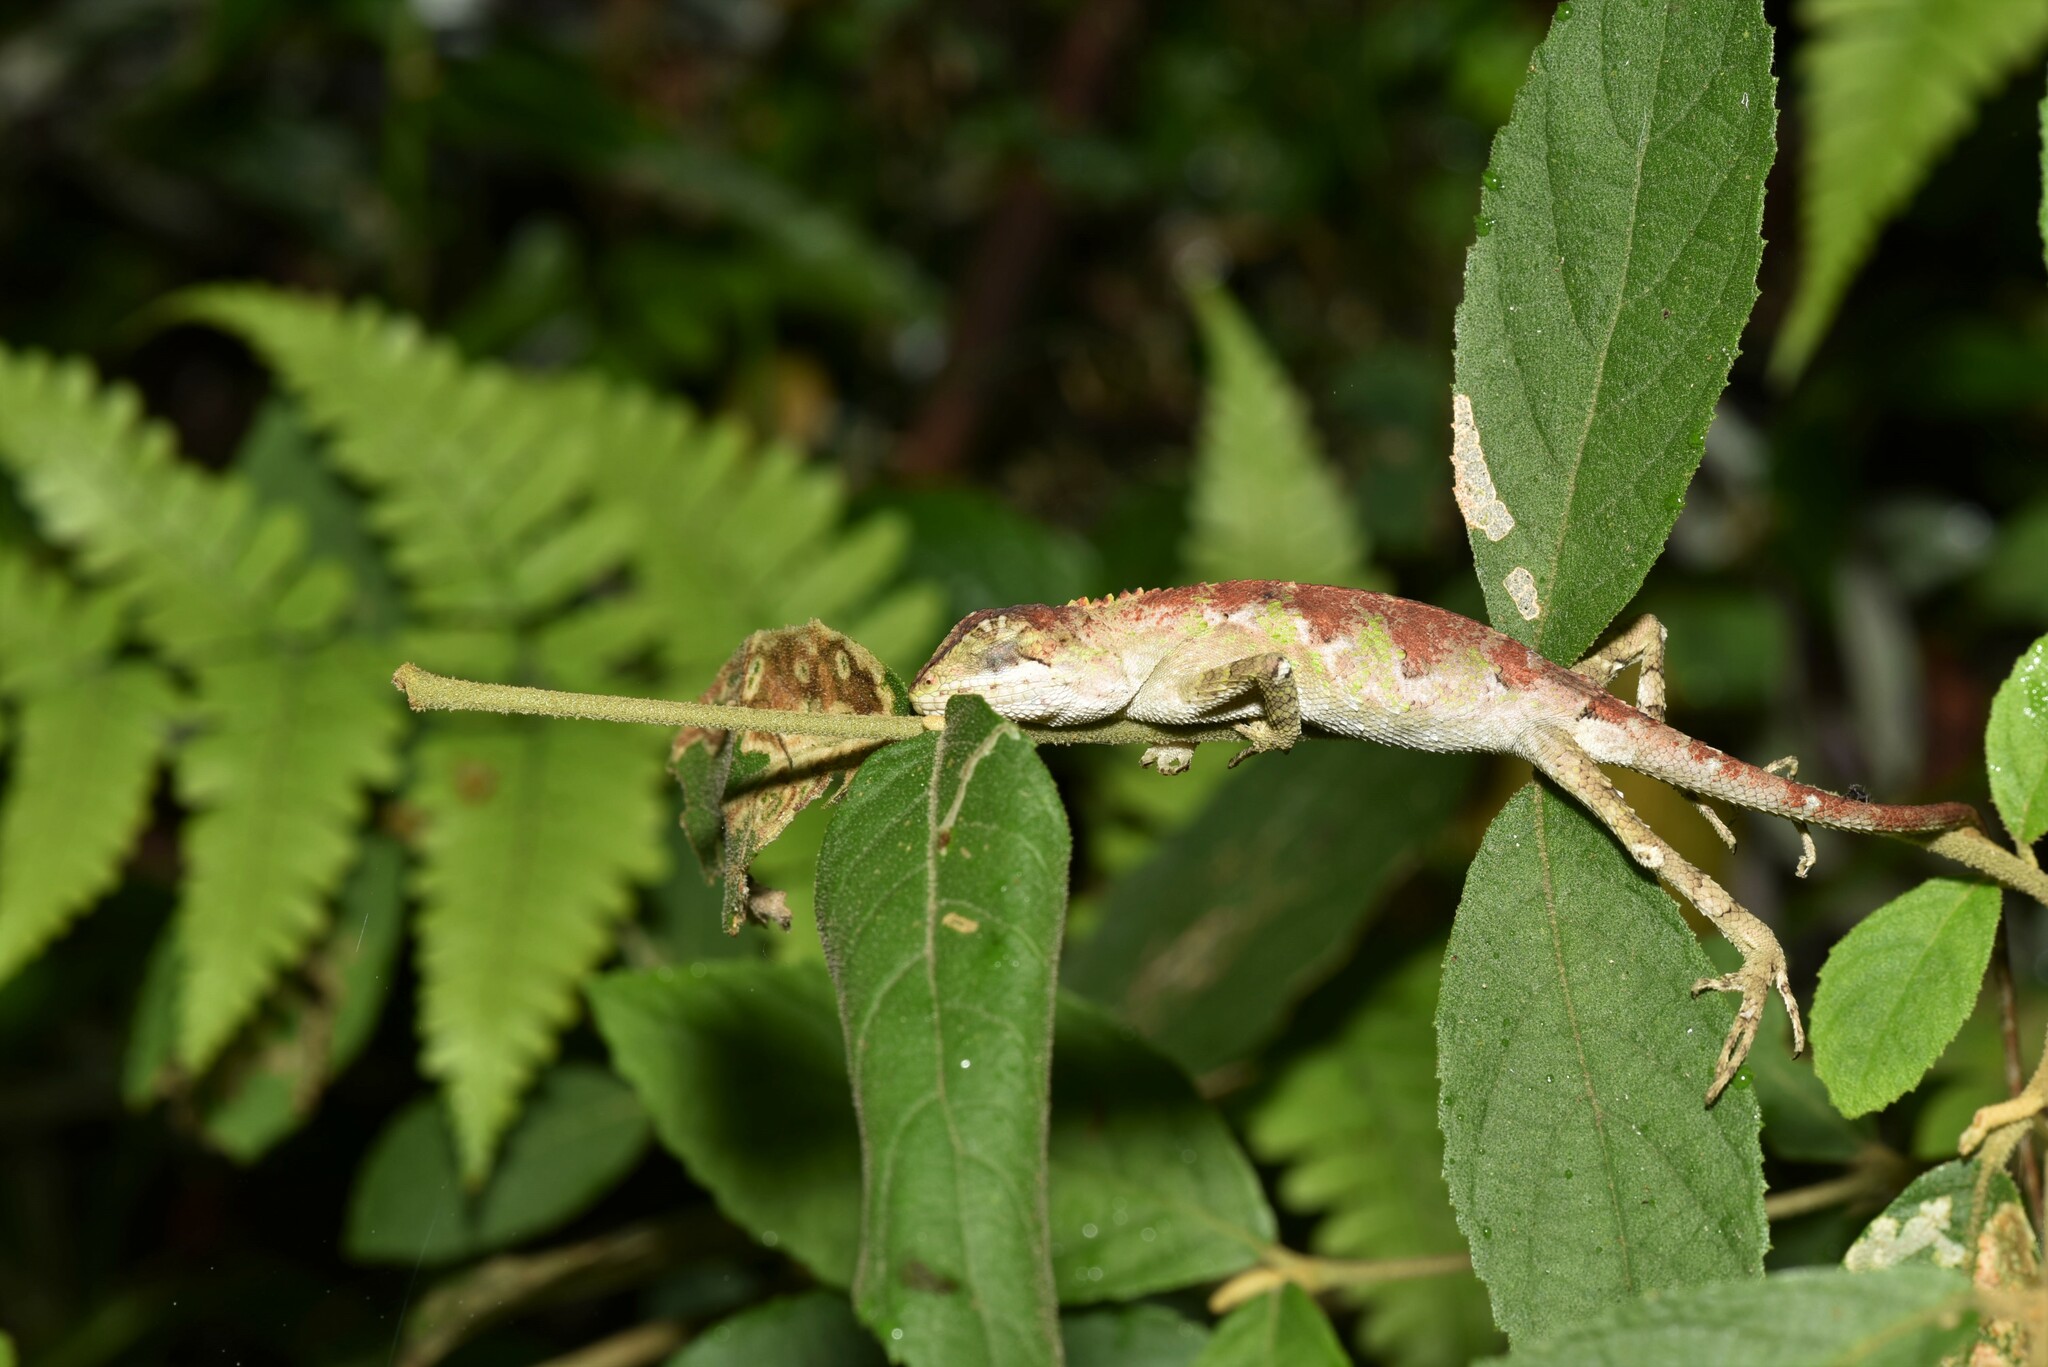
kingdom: Fungi
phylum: Basidiomycota
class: Agaricomycetes
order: Boletales
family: Diplocystidiaceae
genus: Diploderma
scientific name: Diploderma polygonatum
